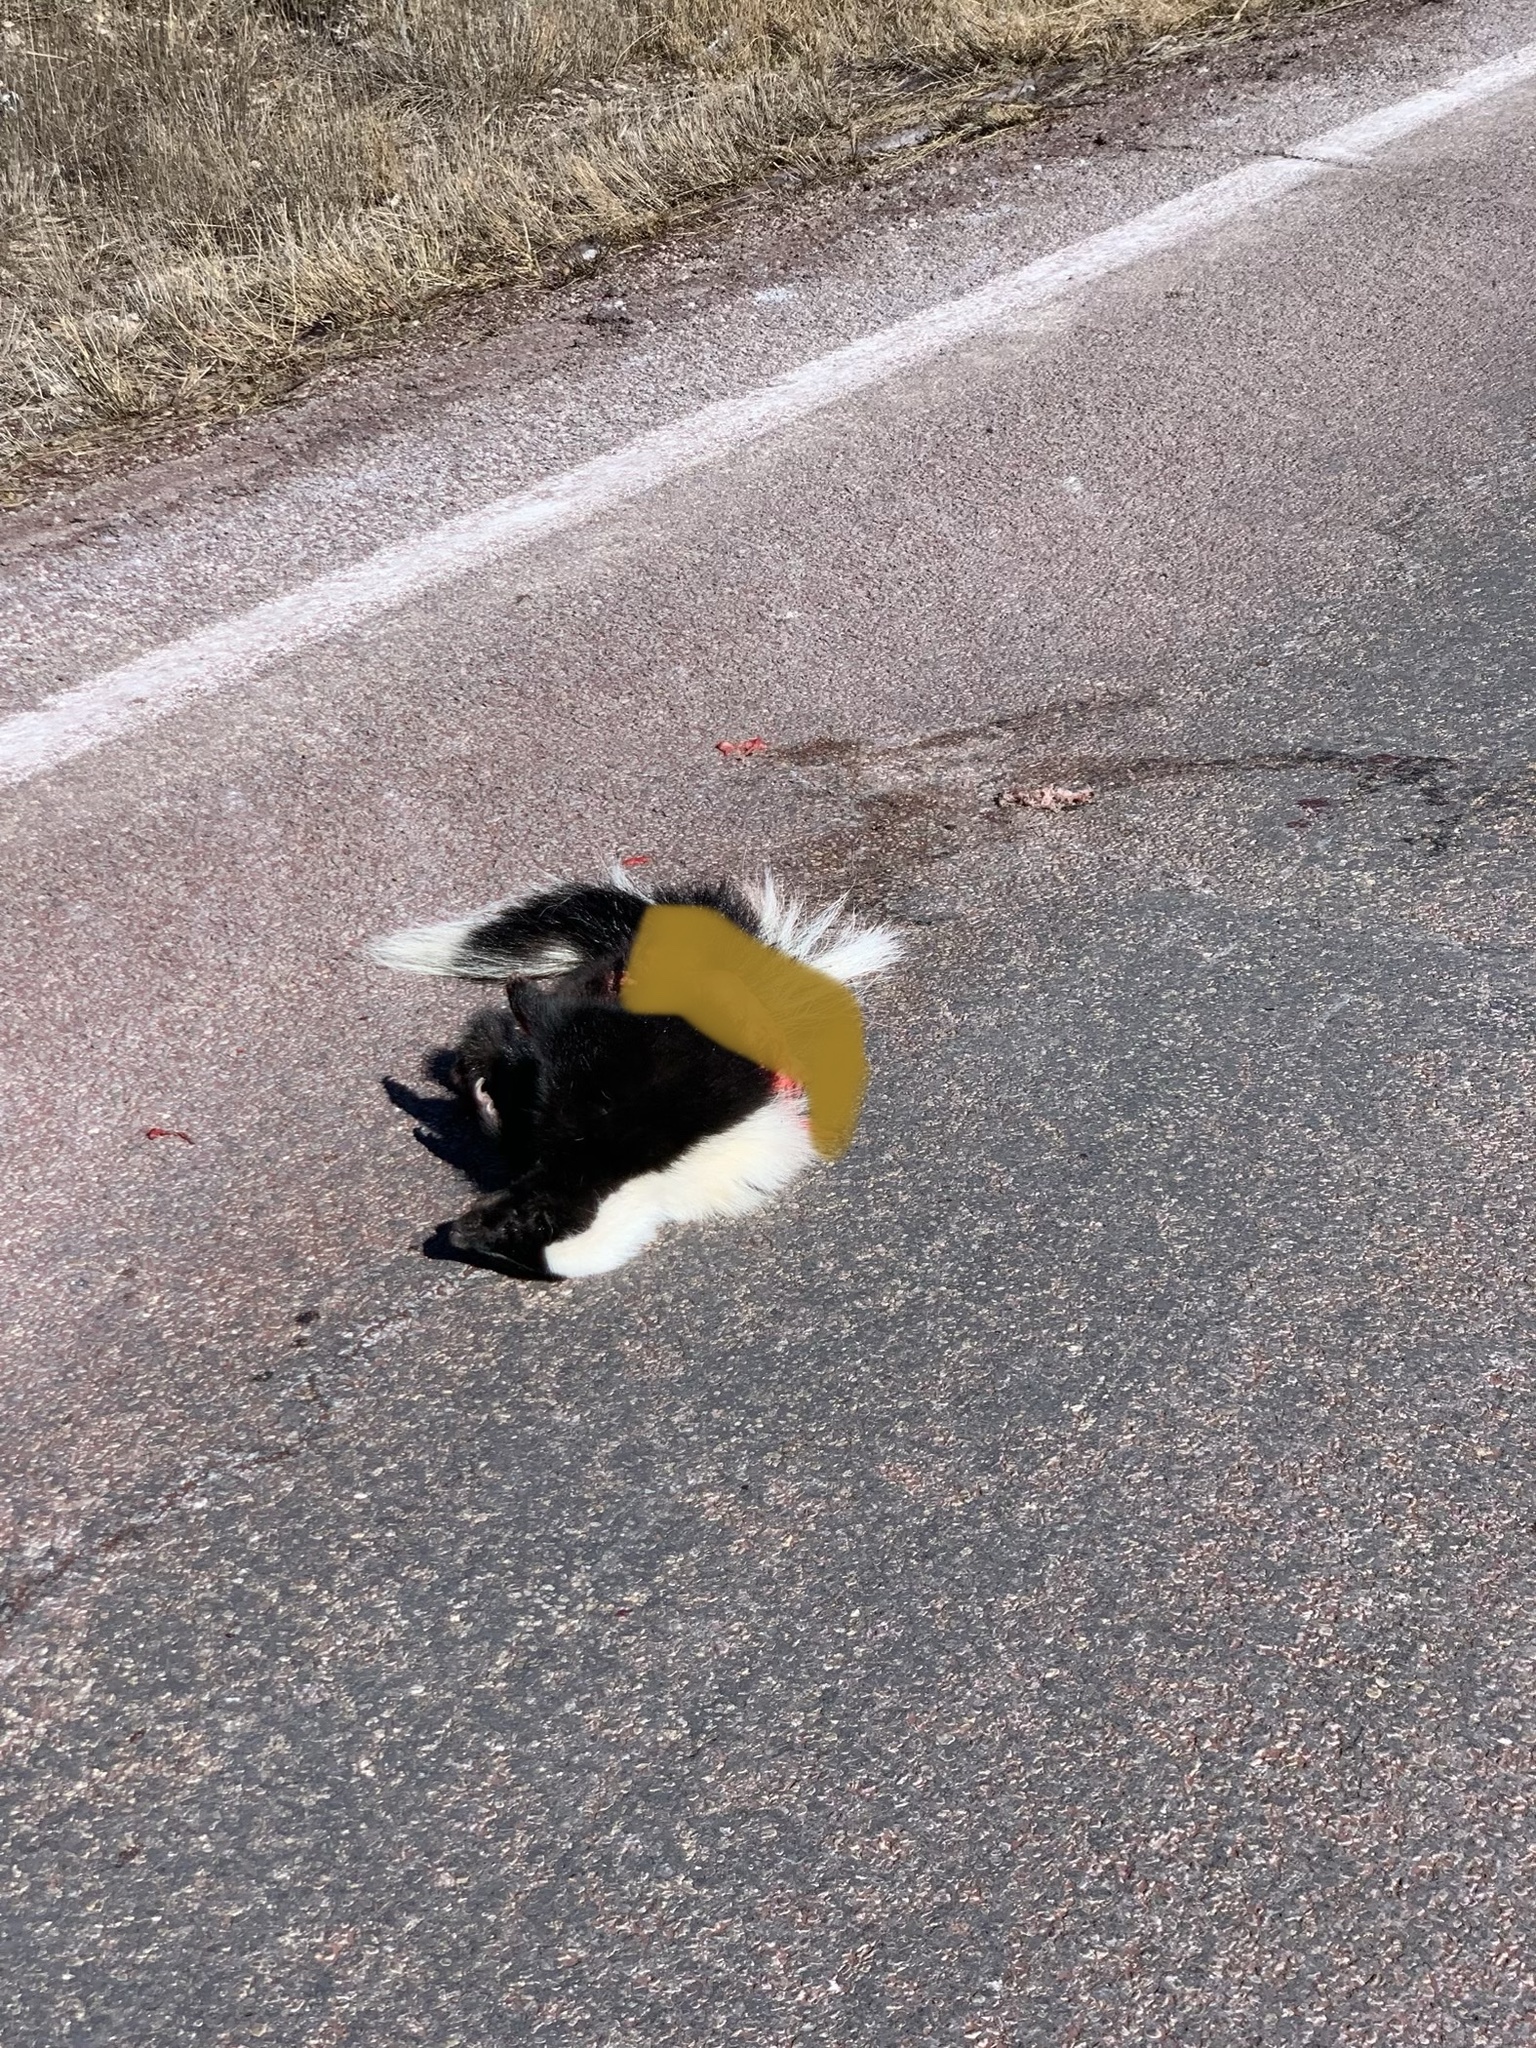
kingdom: Animalia
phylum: Chordata
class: Mammalia
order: Carnivora
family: Mephitidae
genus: Mephitis
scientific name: Mephitis mephitis
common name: Striped skunk
